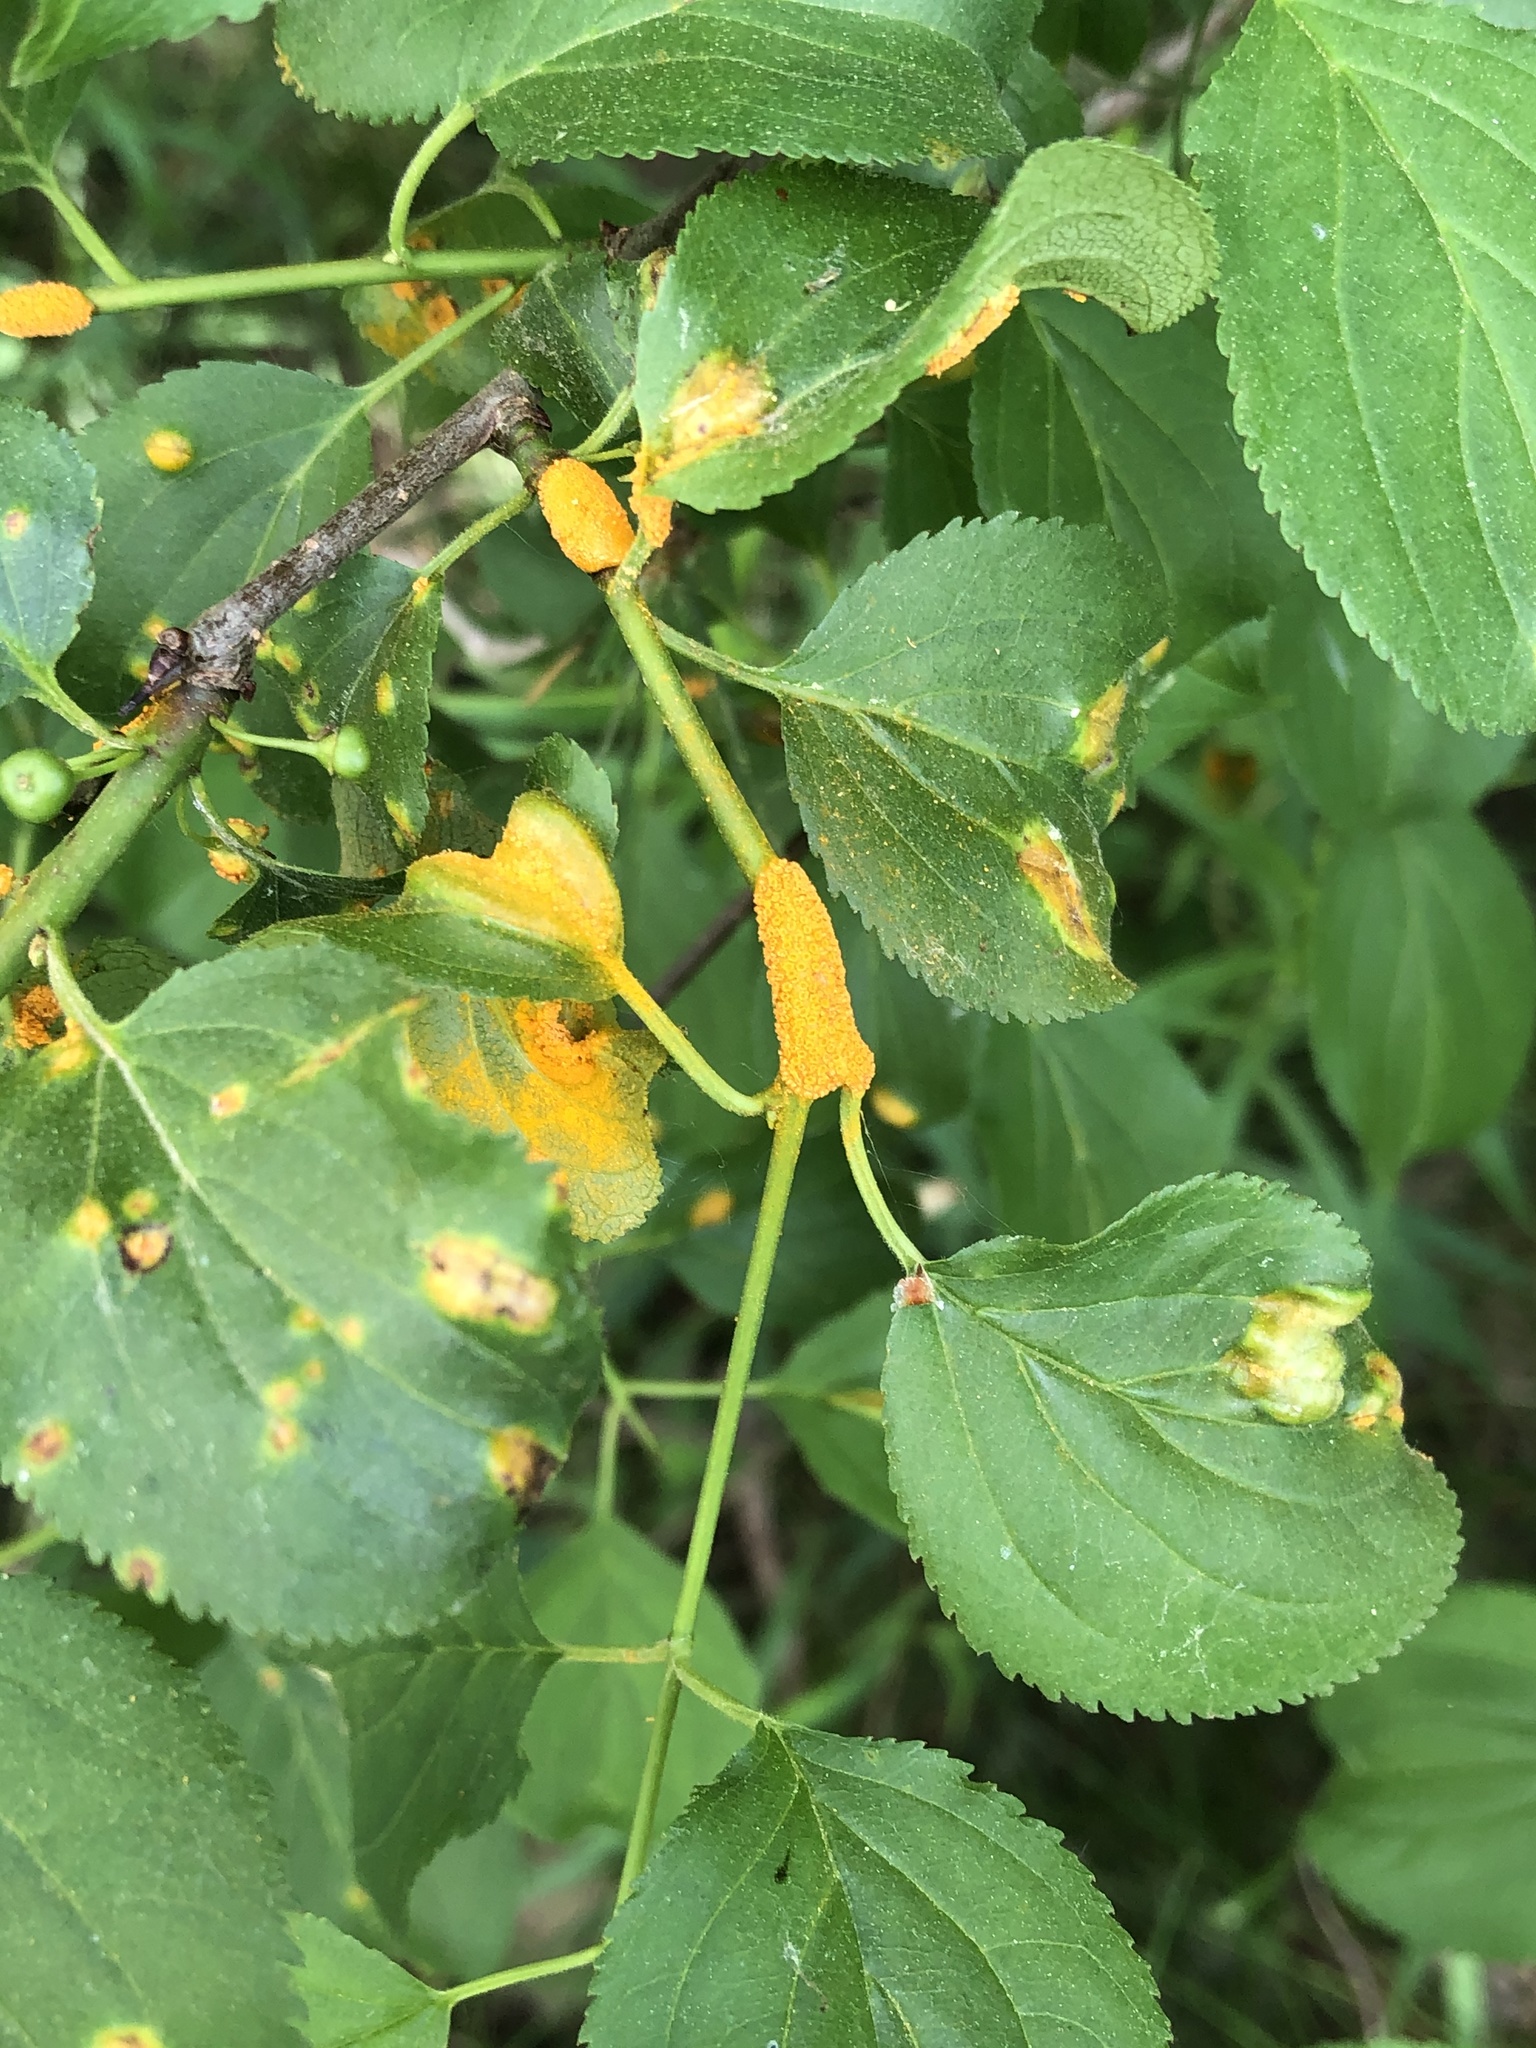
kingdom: Fungi
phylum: Basidiomycota
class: Pucciniomycetes
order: Pucciniales
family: Pucciniaceae
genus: Puccinia
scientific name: Puccinia coronata
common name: Crown rust
